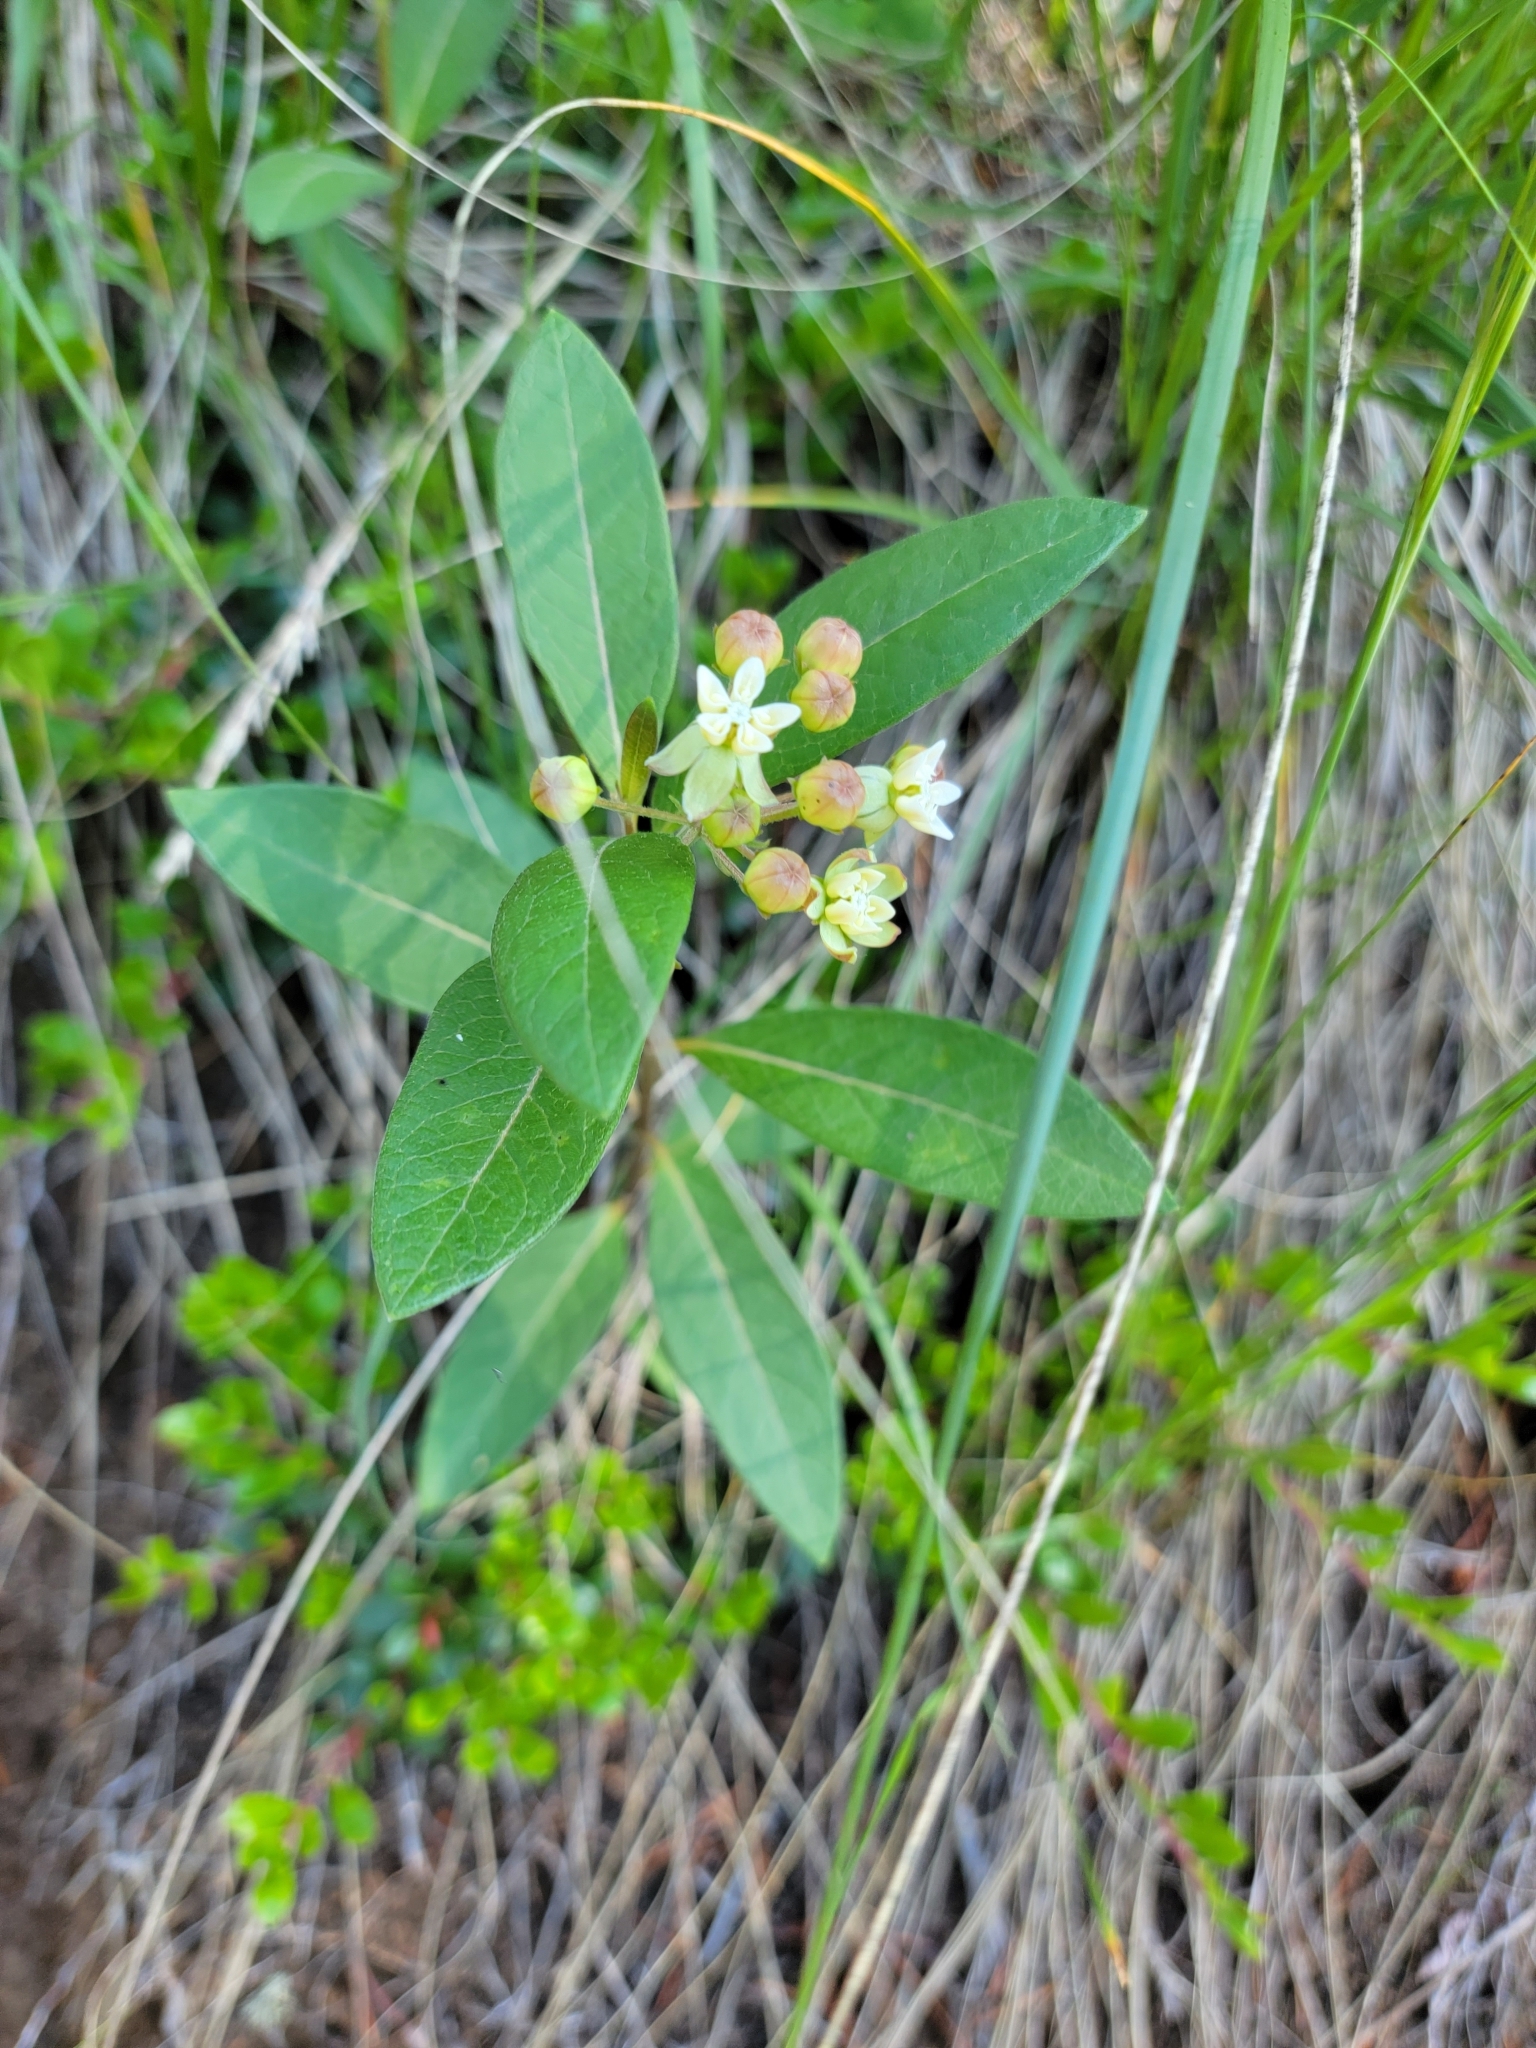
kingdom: Plantae
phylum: Tracheophyta
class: Magnoliopsida
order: Gentianales
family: Apocynaceae
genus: Asclepias
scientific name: Asclepias ovalifolia
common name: Dwarf milkweed
